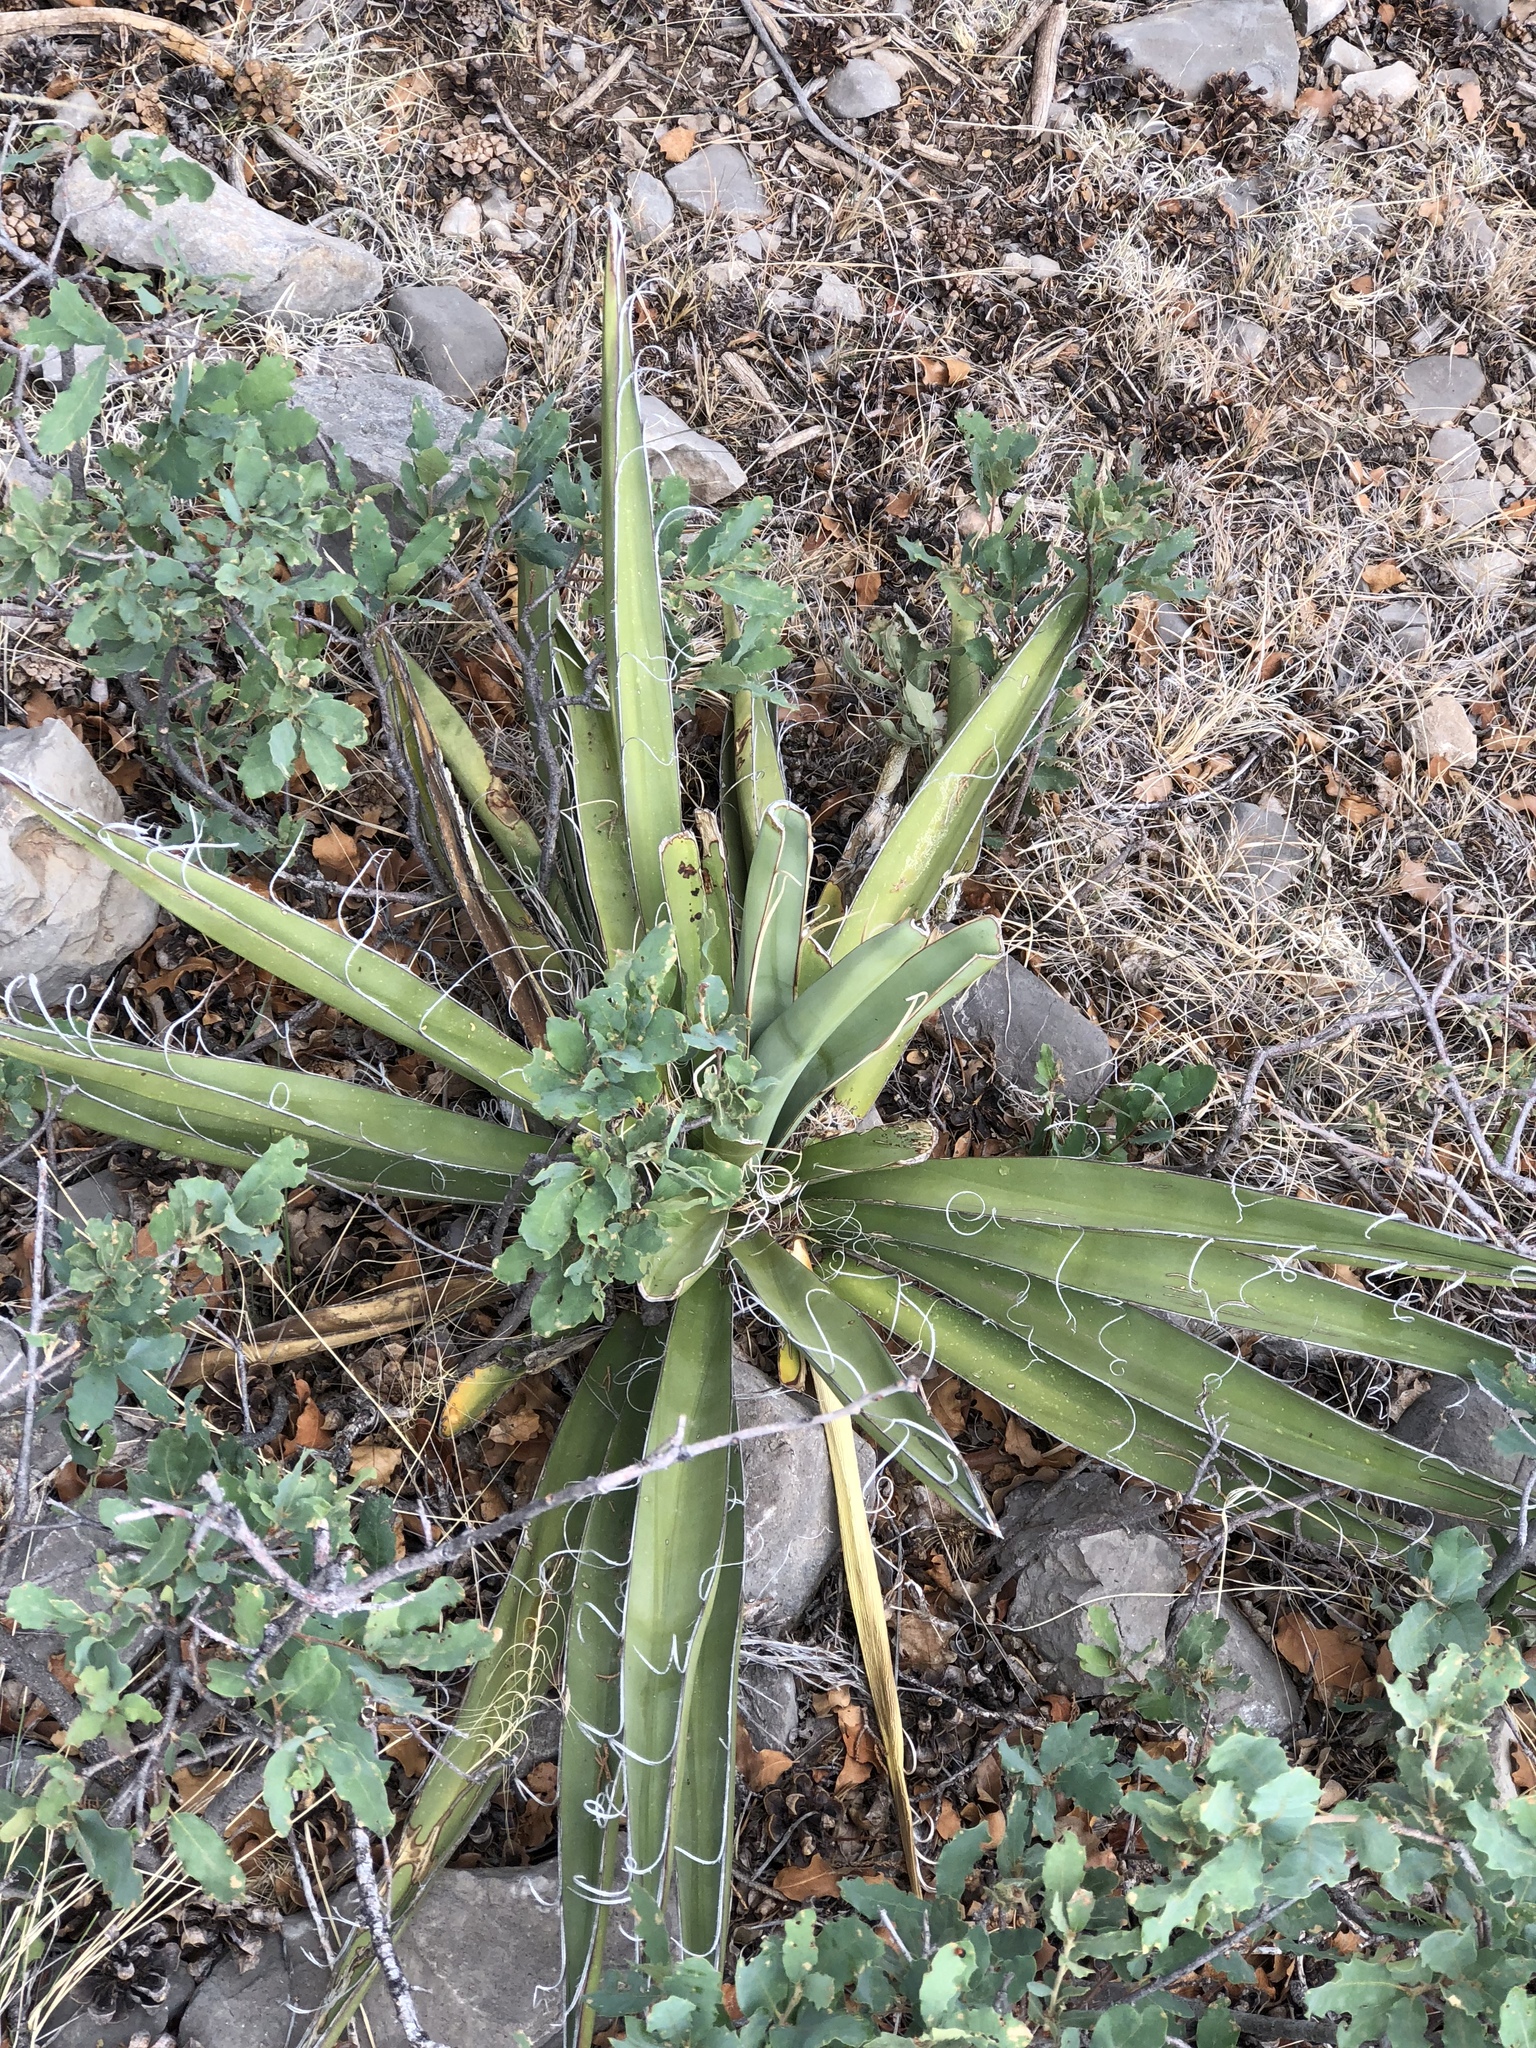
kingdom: Plantae
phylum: Tracheophyta
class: Liliopsida
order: Asparagales
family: Asparagaceae
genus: Yucca
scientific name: Yucca baccata
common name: Banana yucca
